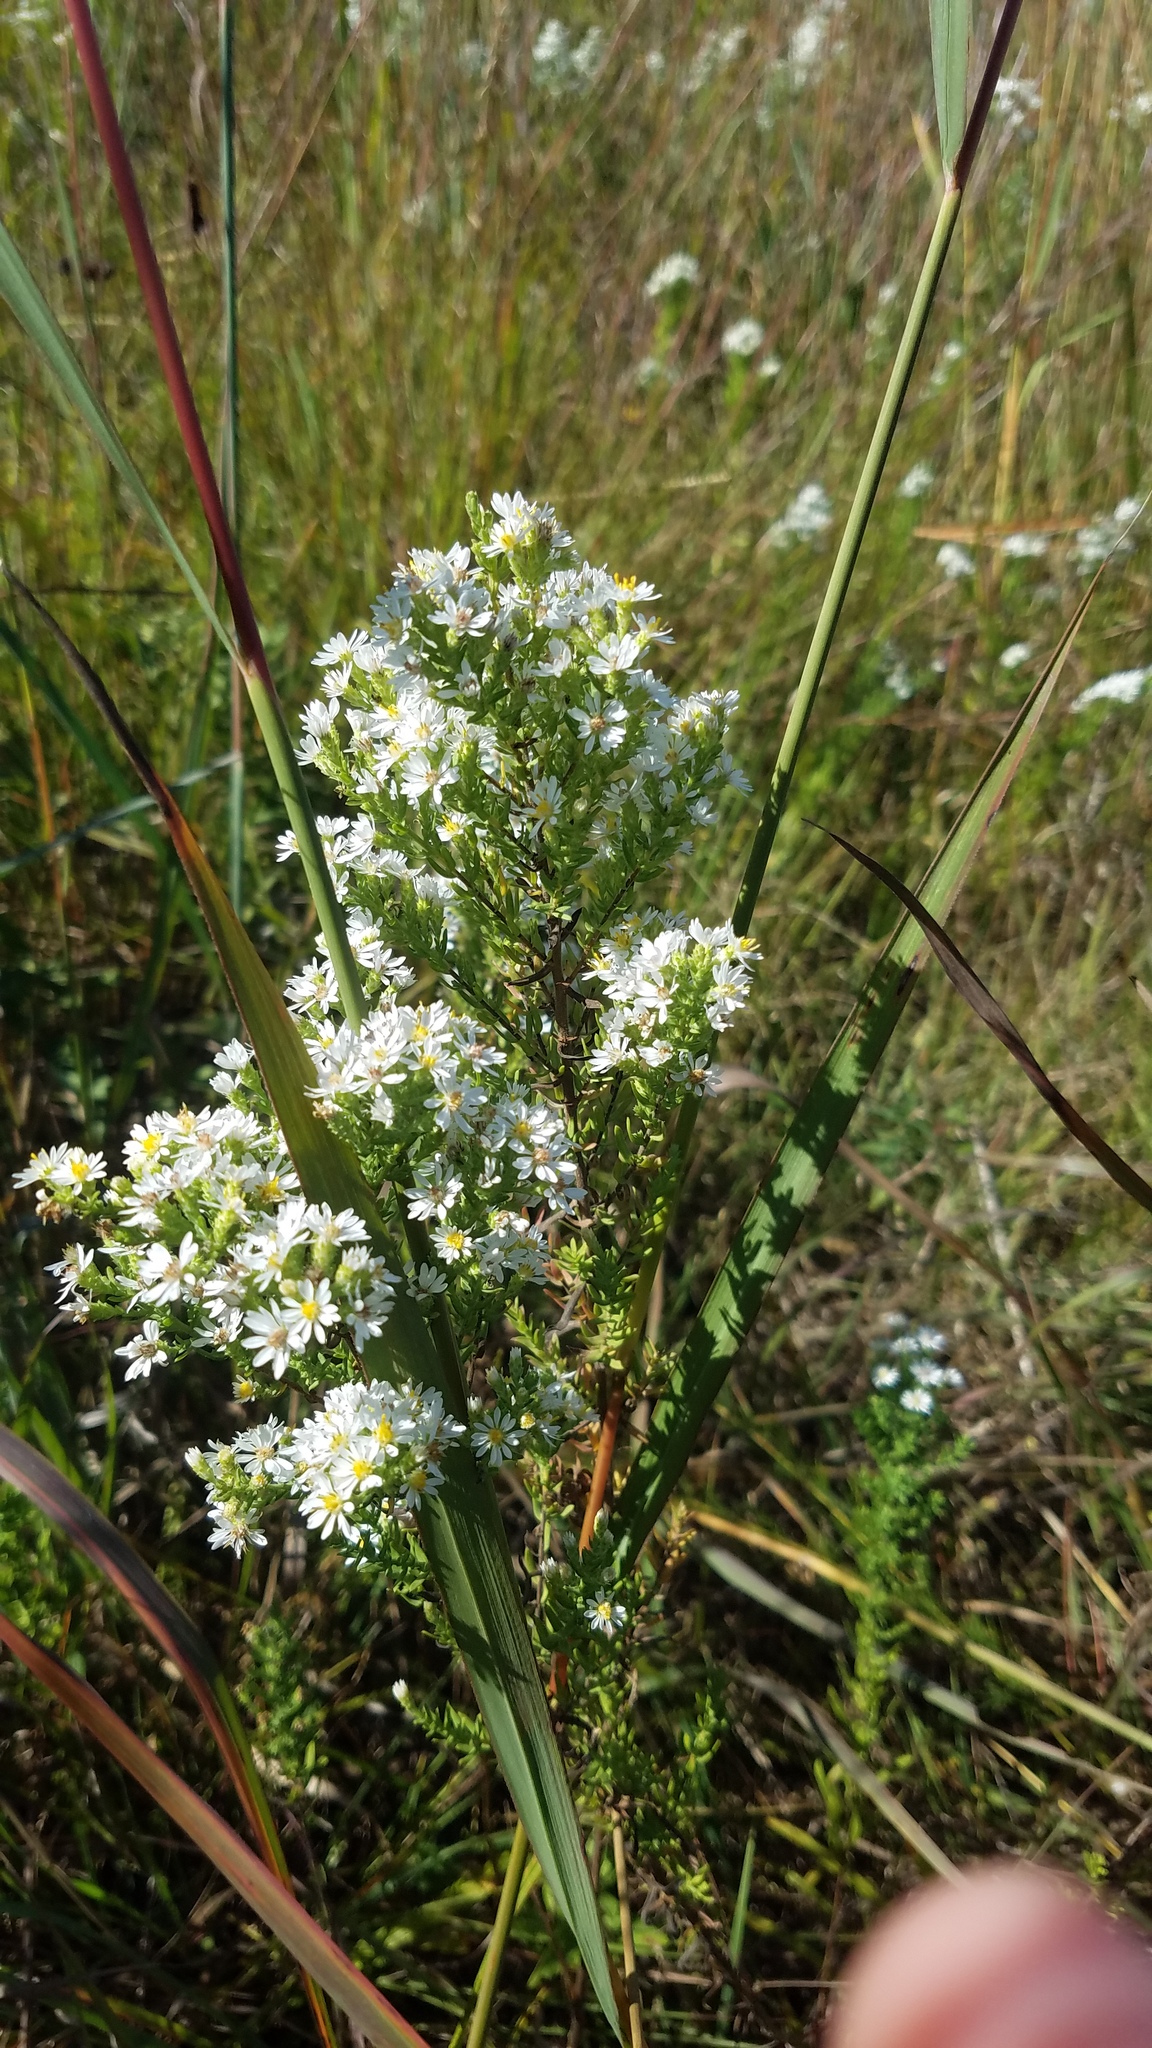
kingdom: Plantae
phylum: Tracheophyta
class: Magnoliopsida
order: Asterales
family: Asteraceae
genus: Symphyotrichum
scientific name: Symphyotrichum ericoides
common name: Heath aster
